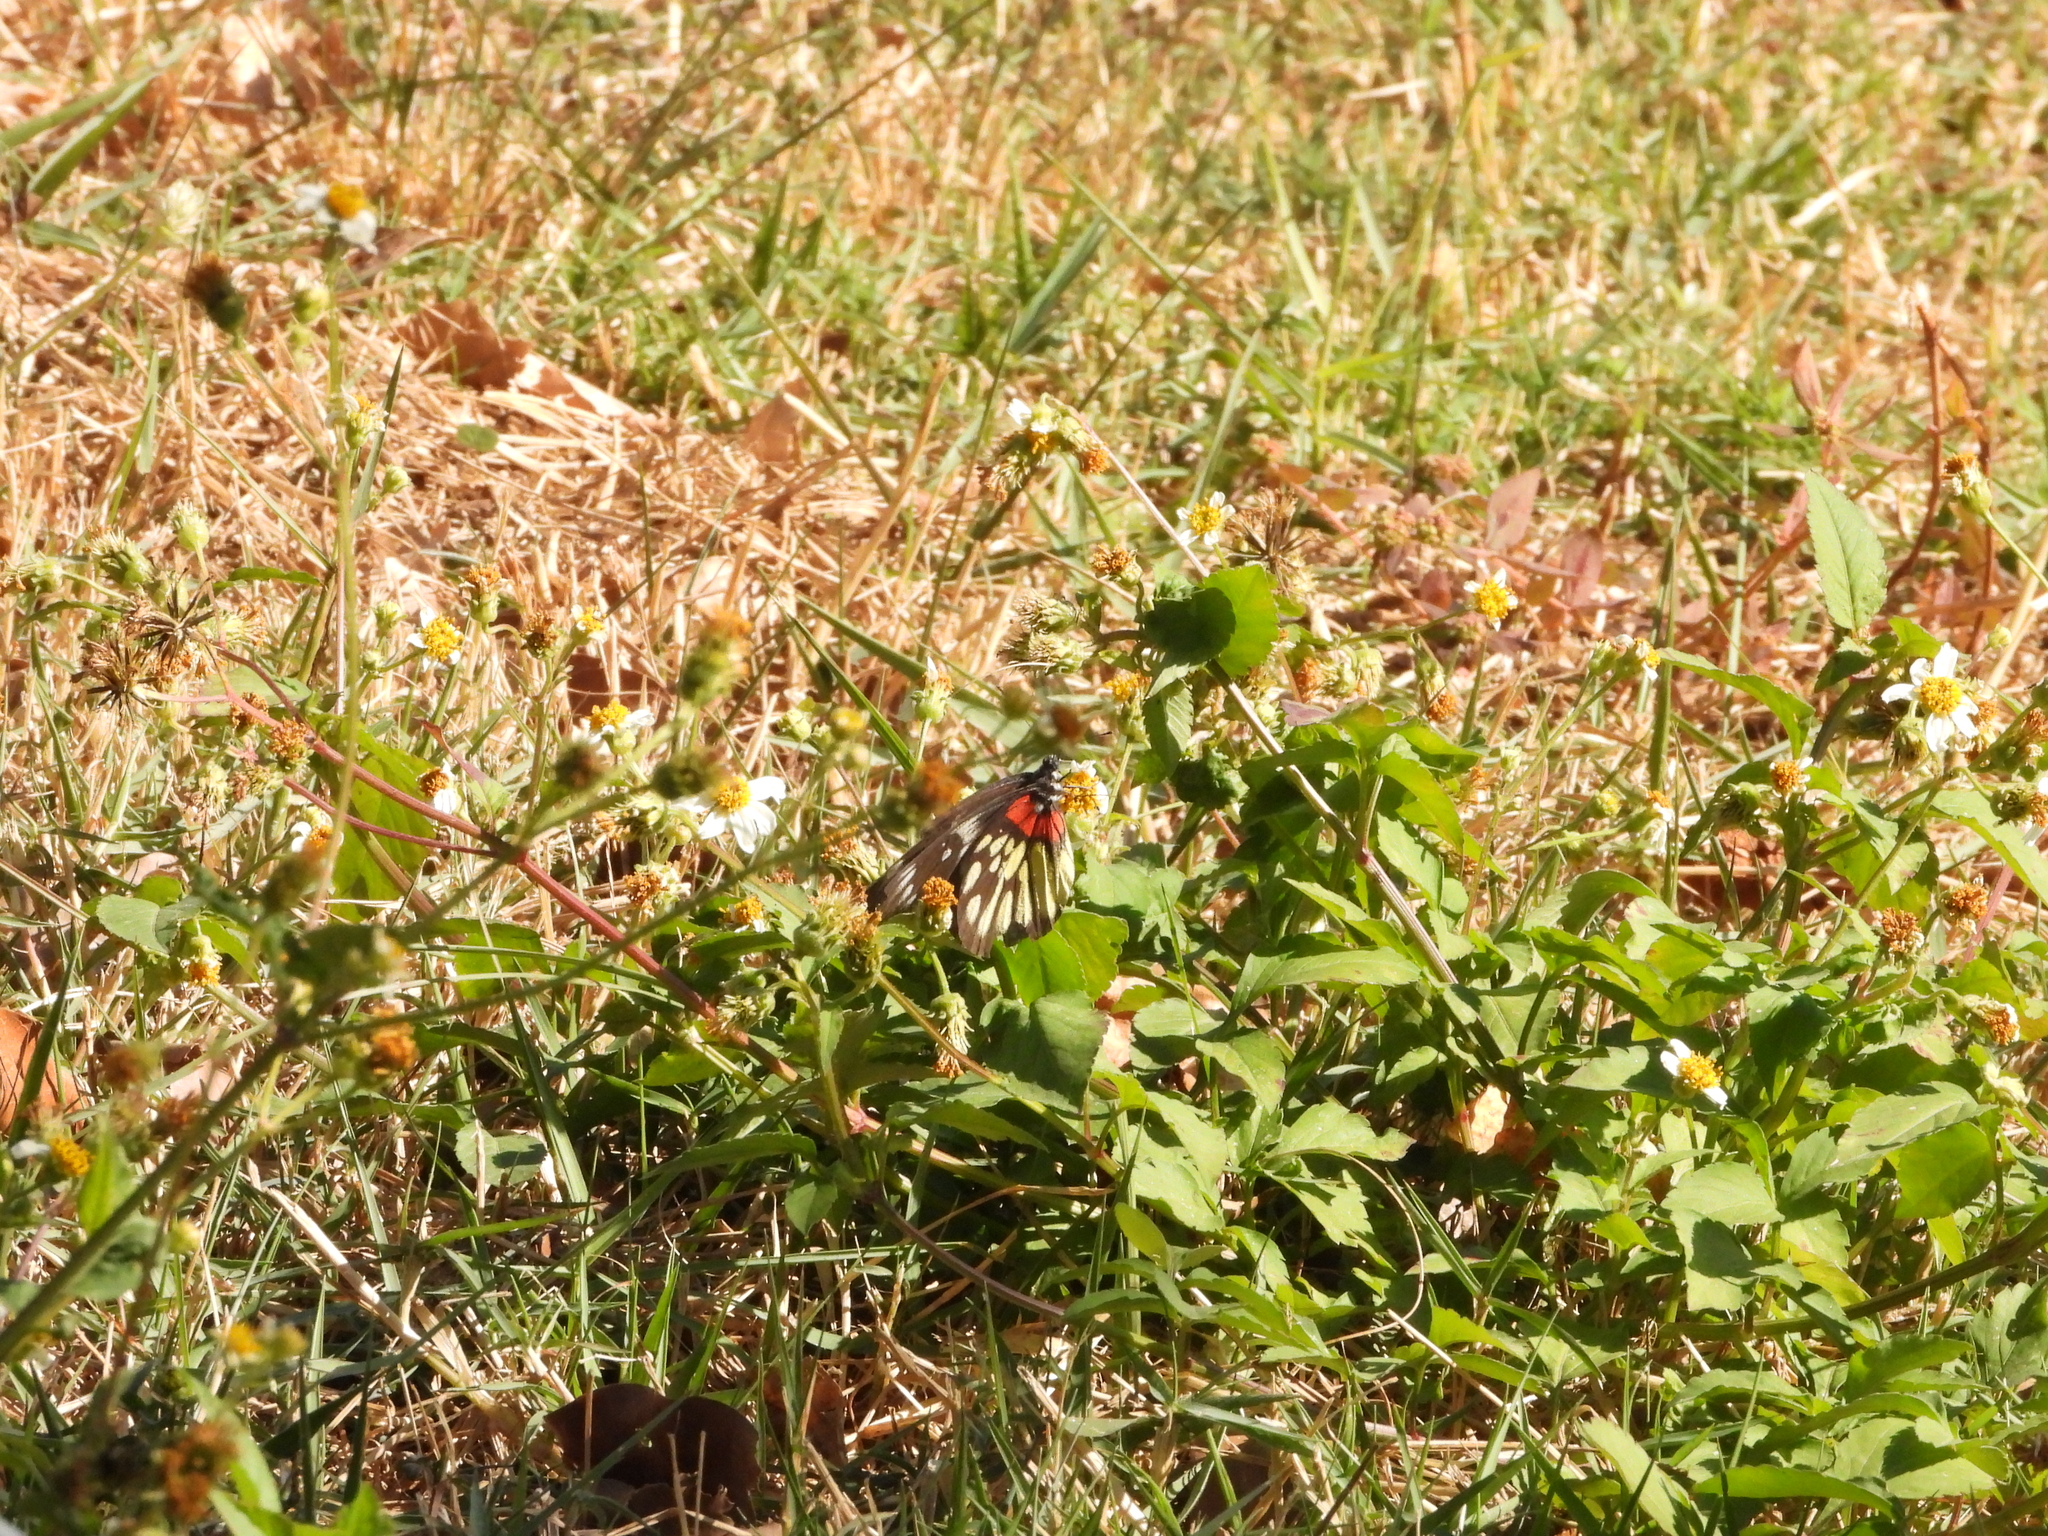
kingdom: Animalia
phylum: Arthropoda
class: Insecta
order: Lepidoptera
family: Pieridae
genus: Delias
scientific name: Delias pasithoe
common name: Red-base jezebel
